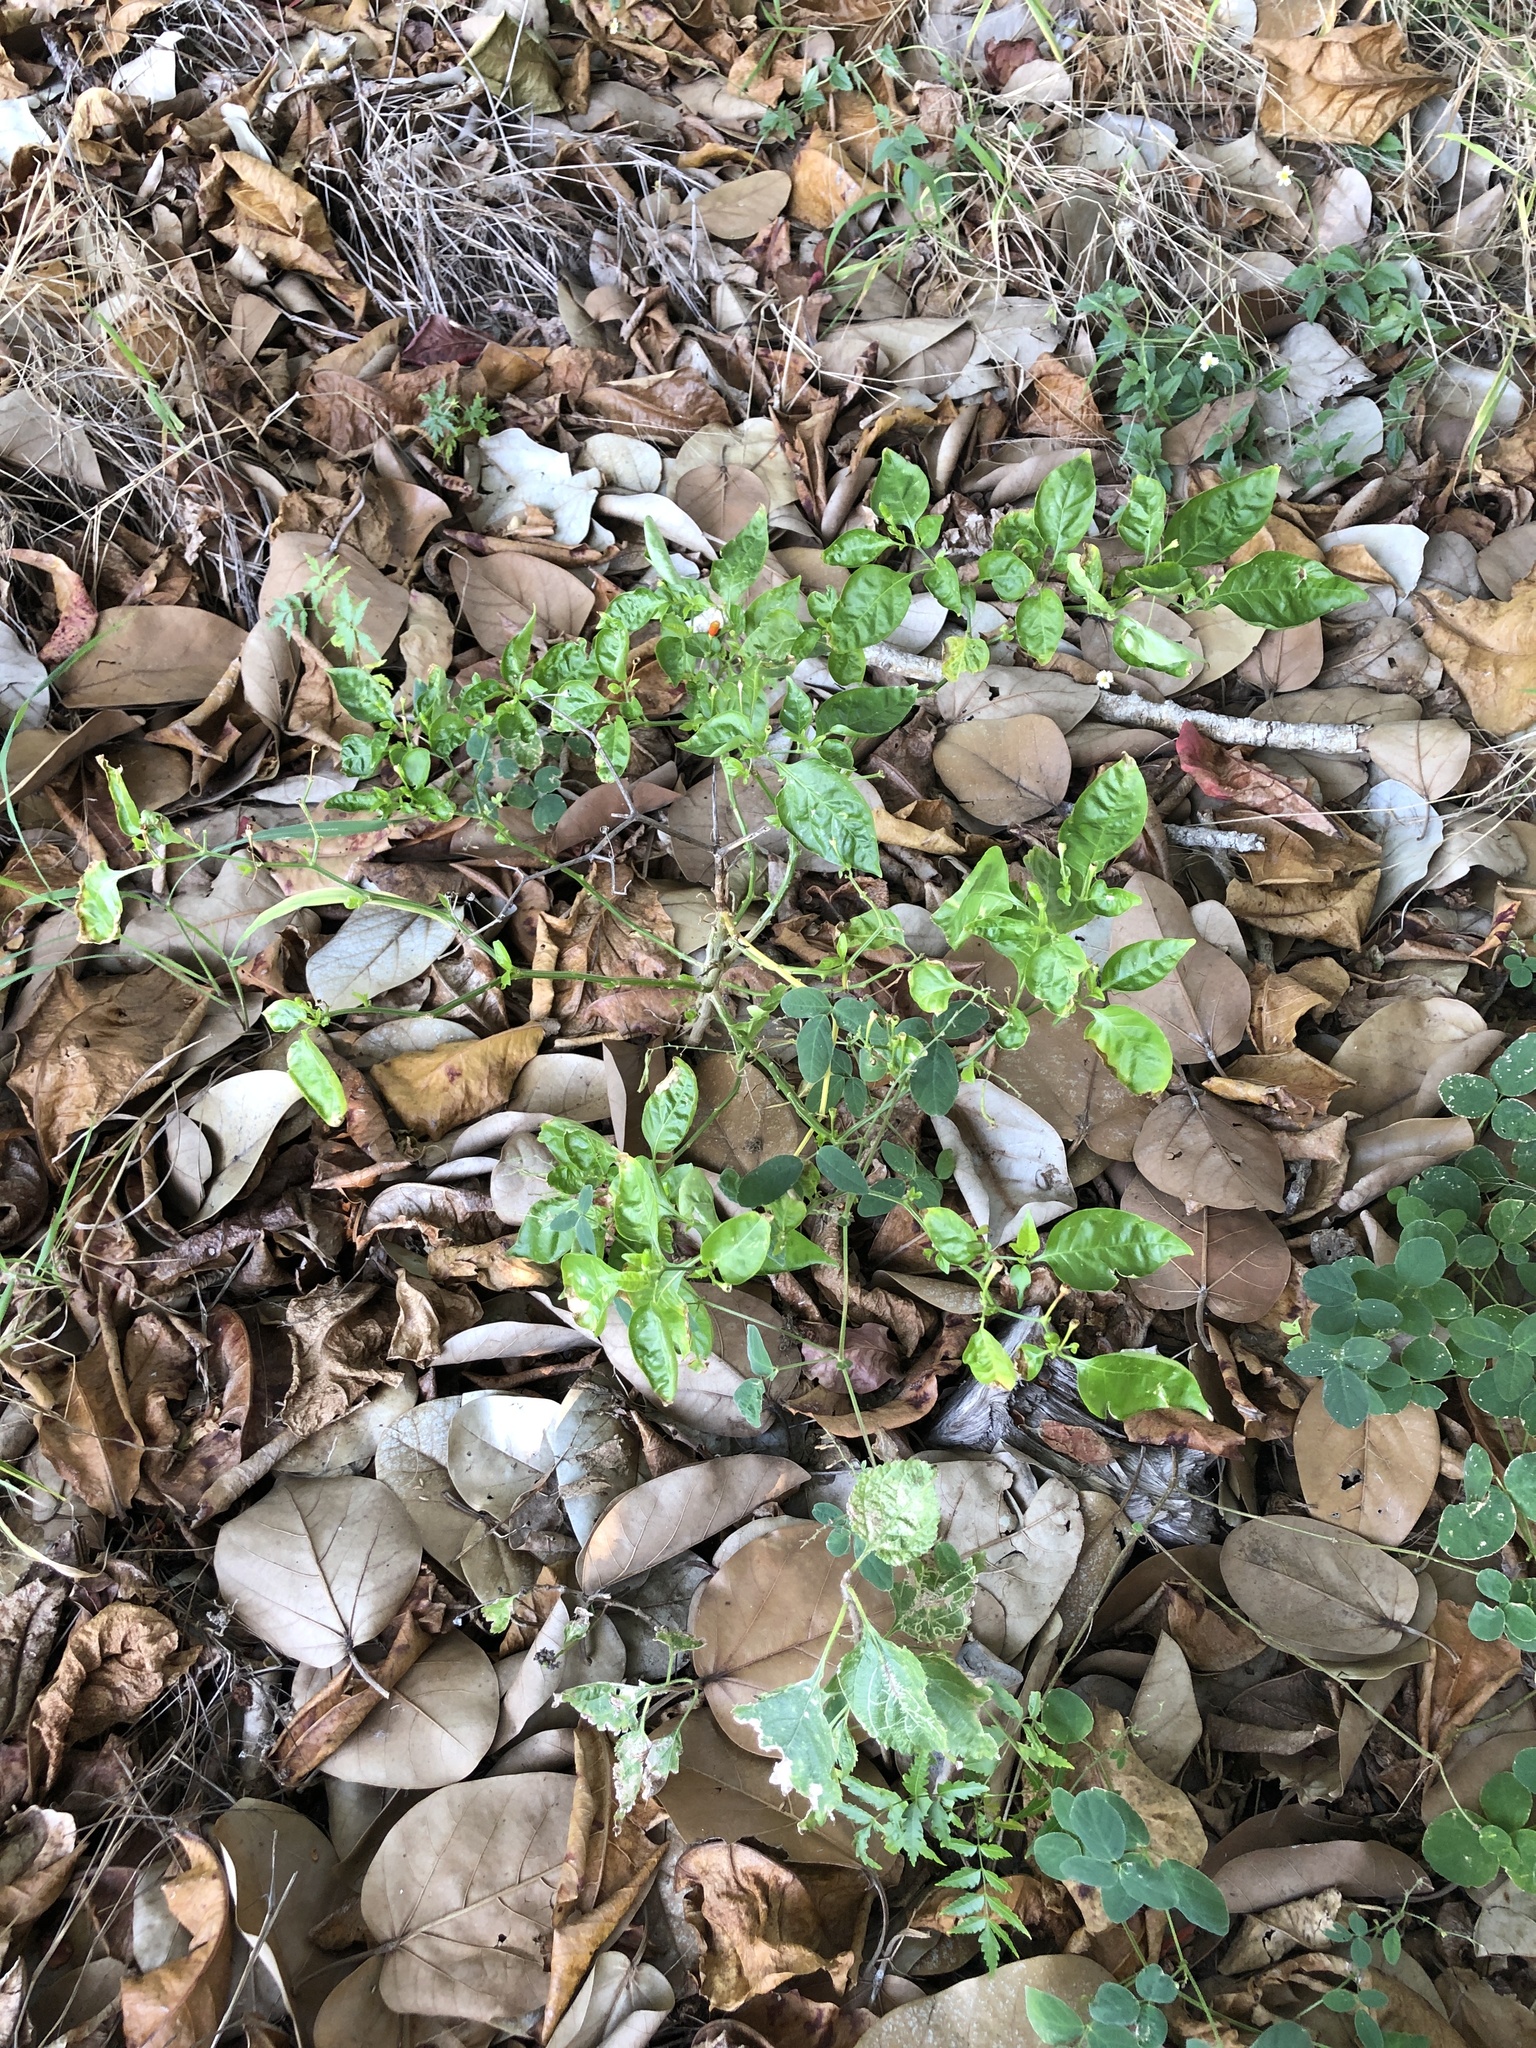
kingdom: Plantae
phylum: Tracheophyta
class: Magnoliopsida
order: Solanales
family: Solanaceae
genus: Capsicum
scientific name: Capsicum annuum
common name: Sweet pepper
